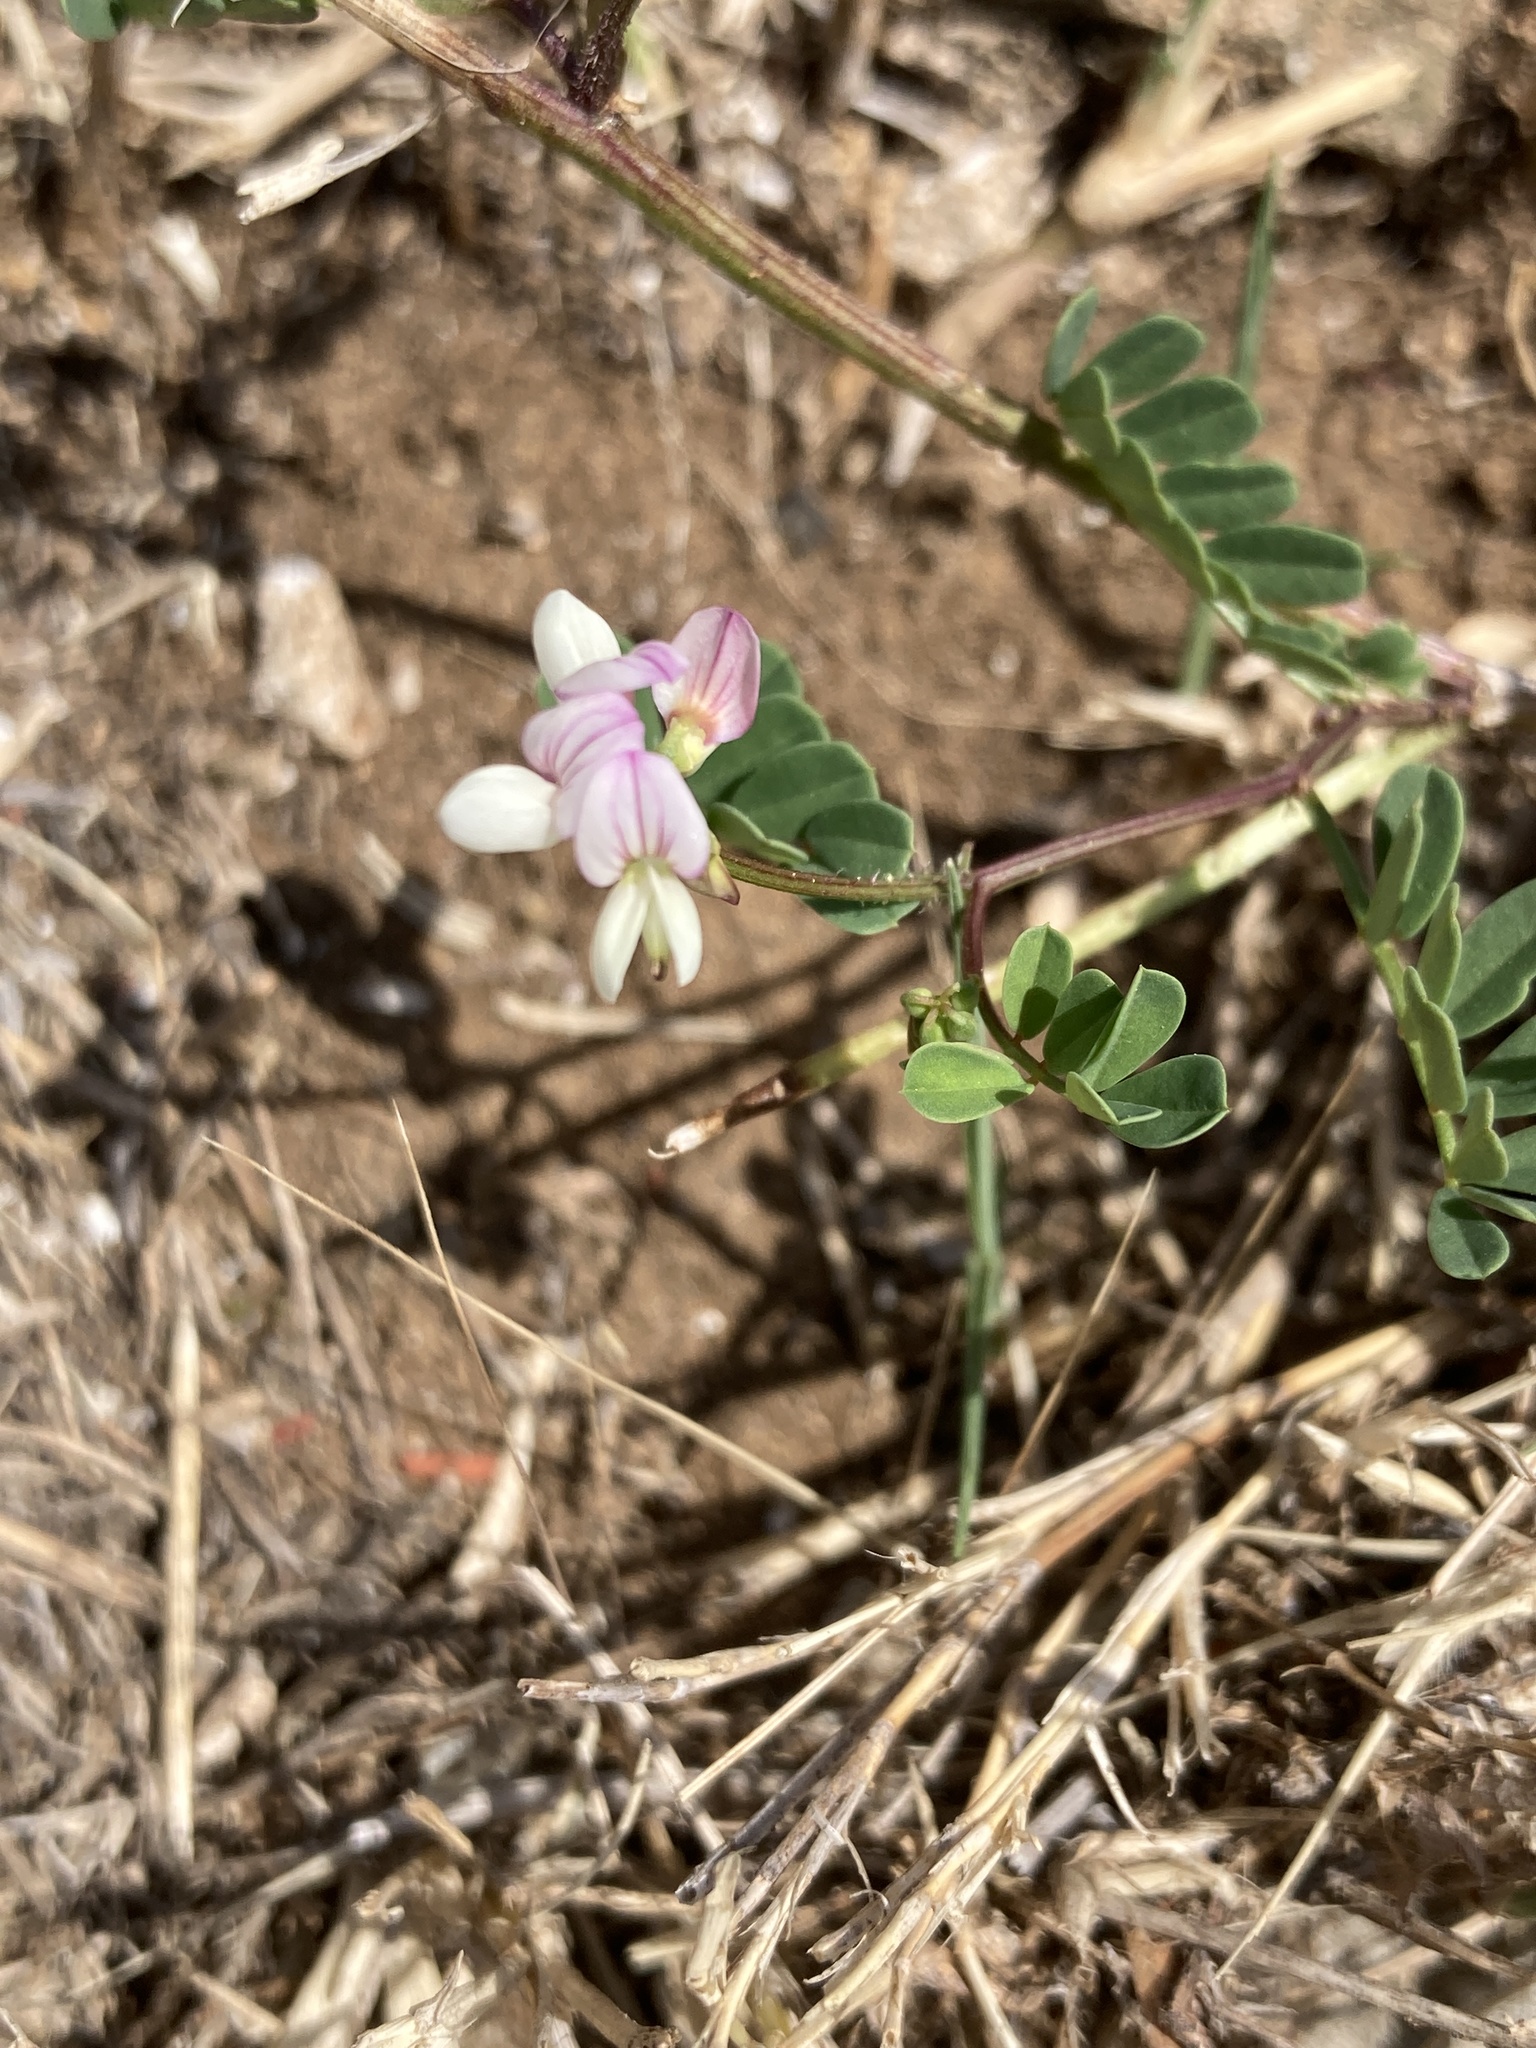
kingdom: Plantae
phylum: Tracheophyta
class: Magnoliopsida
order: Fabales
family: Fabaceae
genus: Coronilla
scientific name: Coronilla varia
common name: Crownvetch
